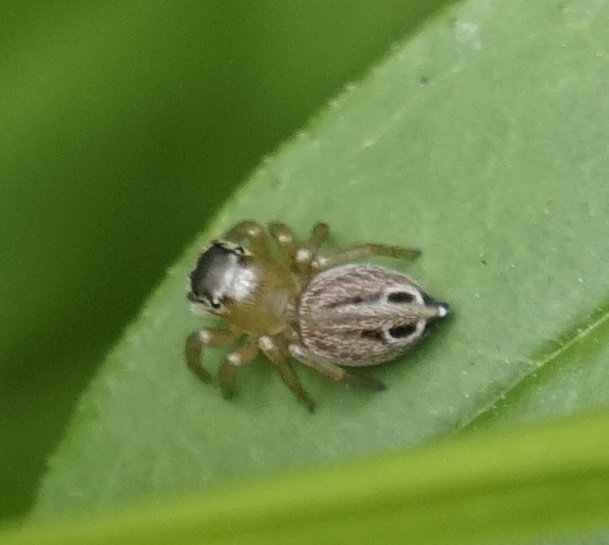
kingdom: Animalia
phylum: Arthropoda
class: Arachnida
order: Araneae
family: Salticidae
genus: Maratus
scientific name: Maratus scutulatus
